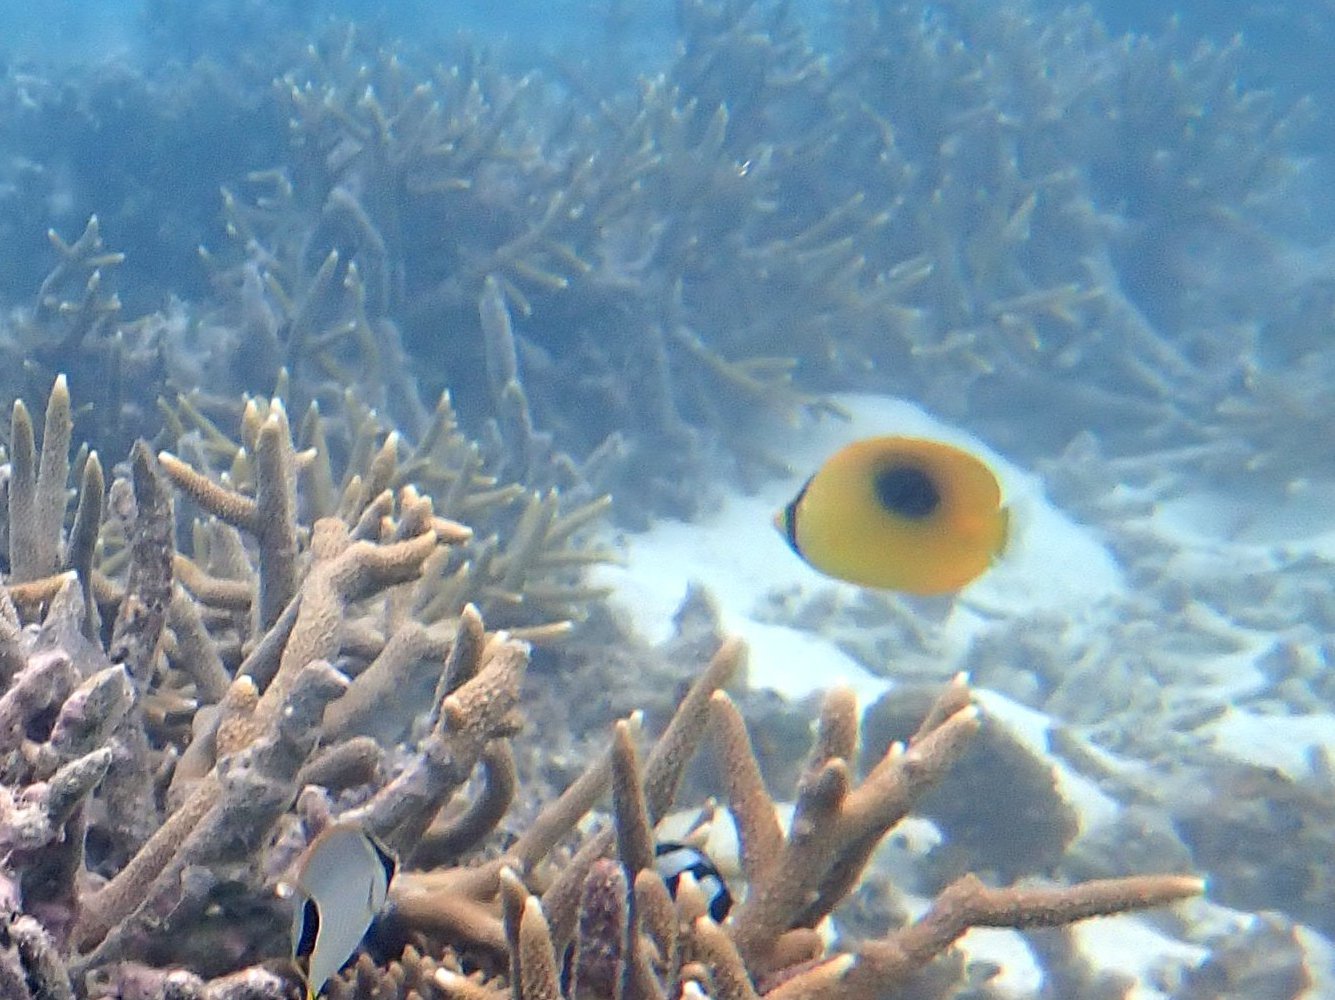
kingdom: Animalia
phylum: Chordata
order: Perciformes
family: Chaetodontidae
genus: Chaetodon
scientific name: Chaetodon speculum
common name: Mirror butterflyfish
